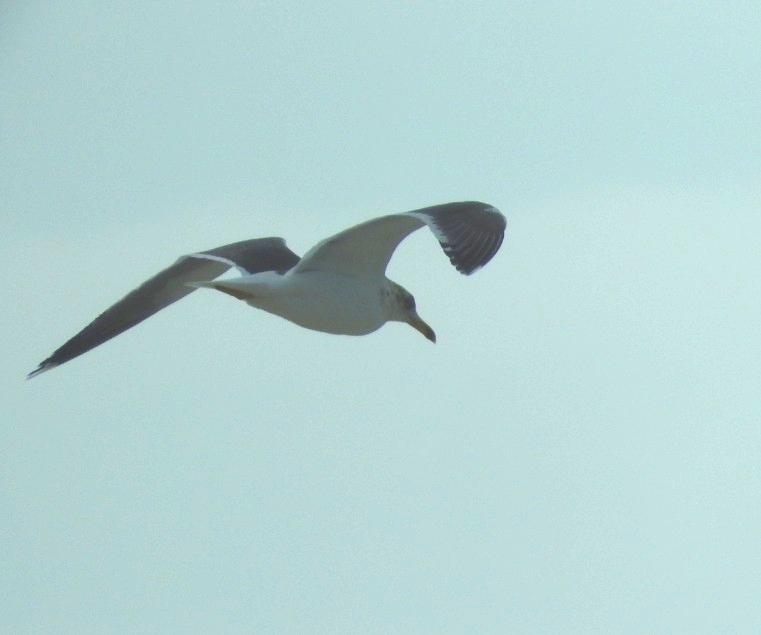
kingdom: Animalia
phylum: Chordata
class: Aves
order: Charadriiformes
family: Laridae
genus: Larus
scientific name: Larus delawarensis
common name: Ring-billed gull
